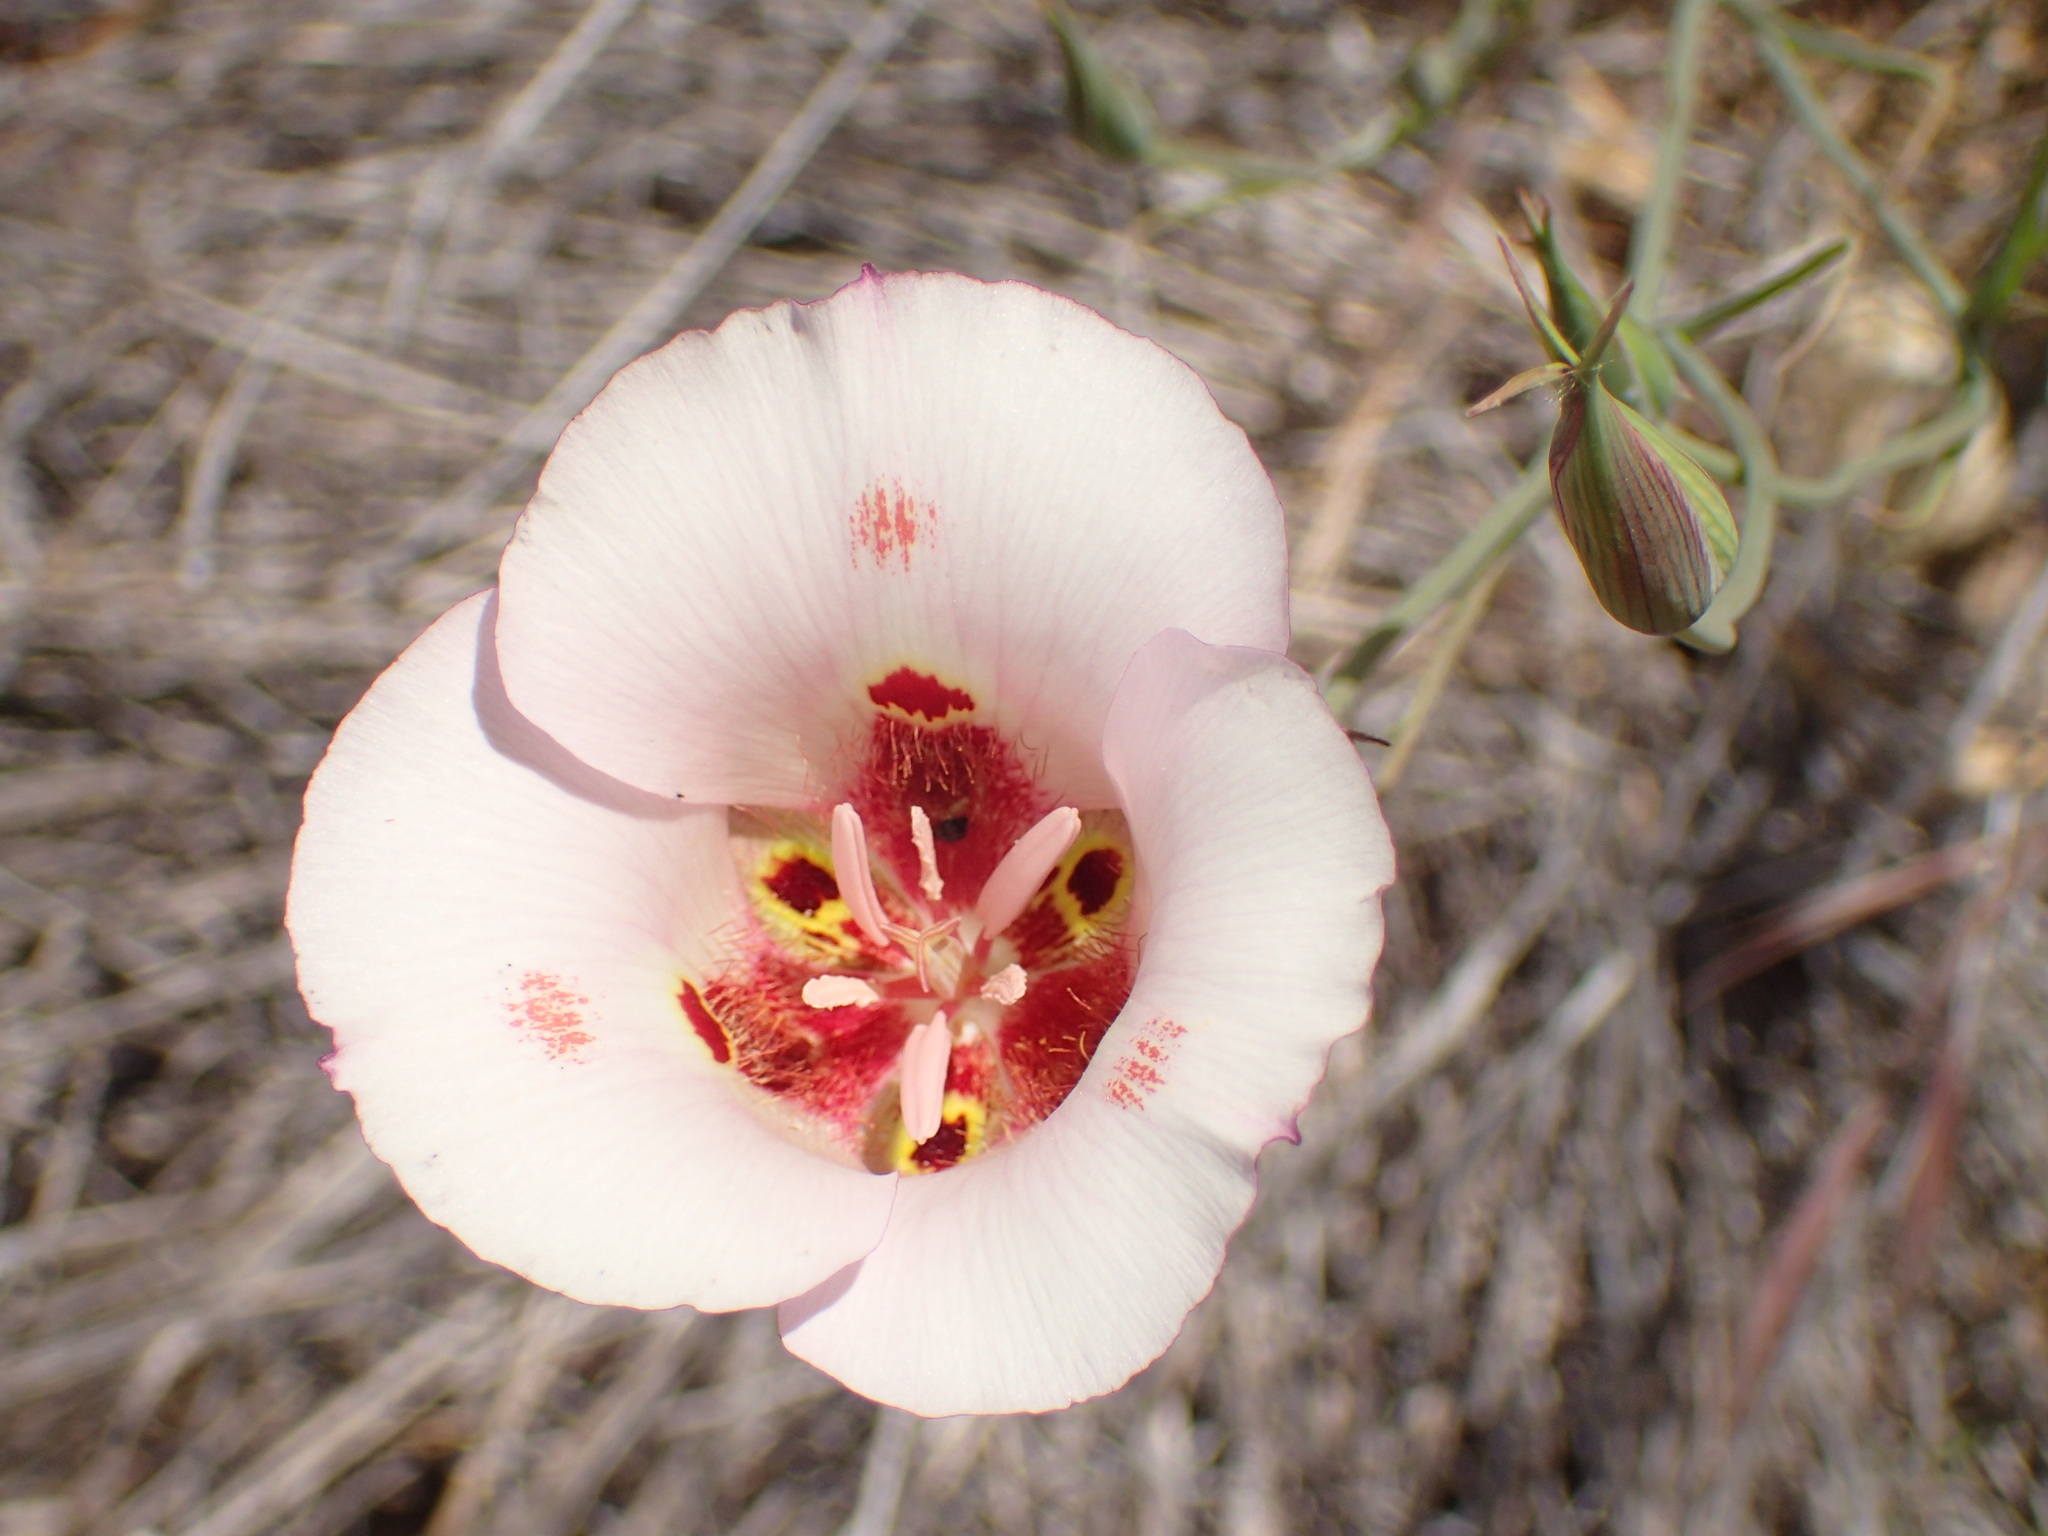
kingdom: Plantae
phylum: Tracheophyta
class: Liliopsida
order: Liliales
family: Liliaceae
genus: Calochortus
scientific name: Calochortus venustus
